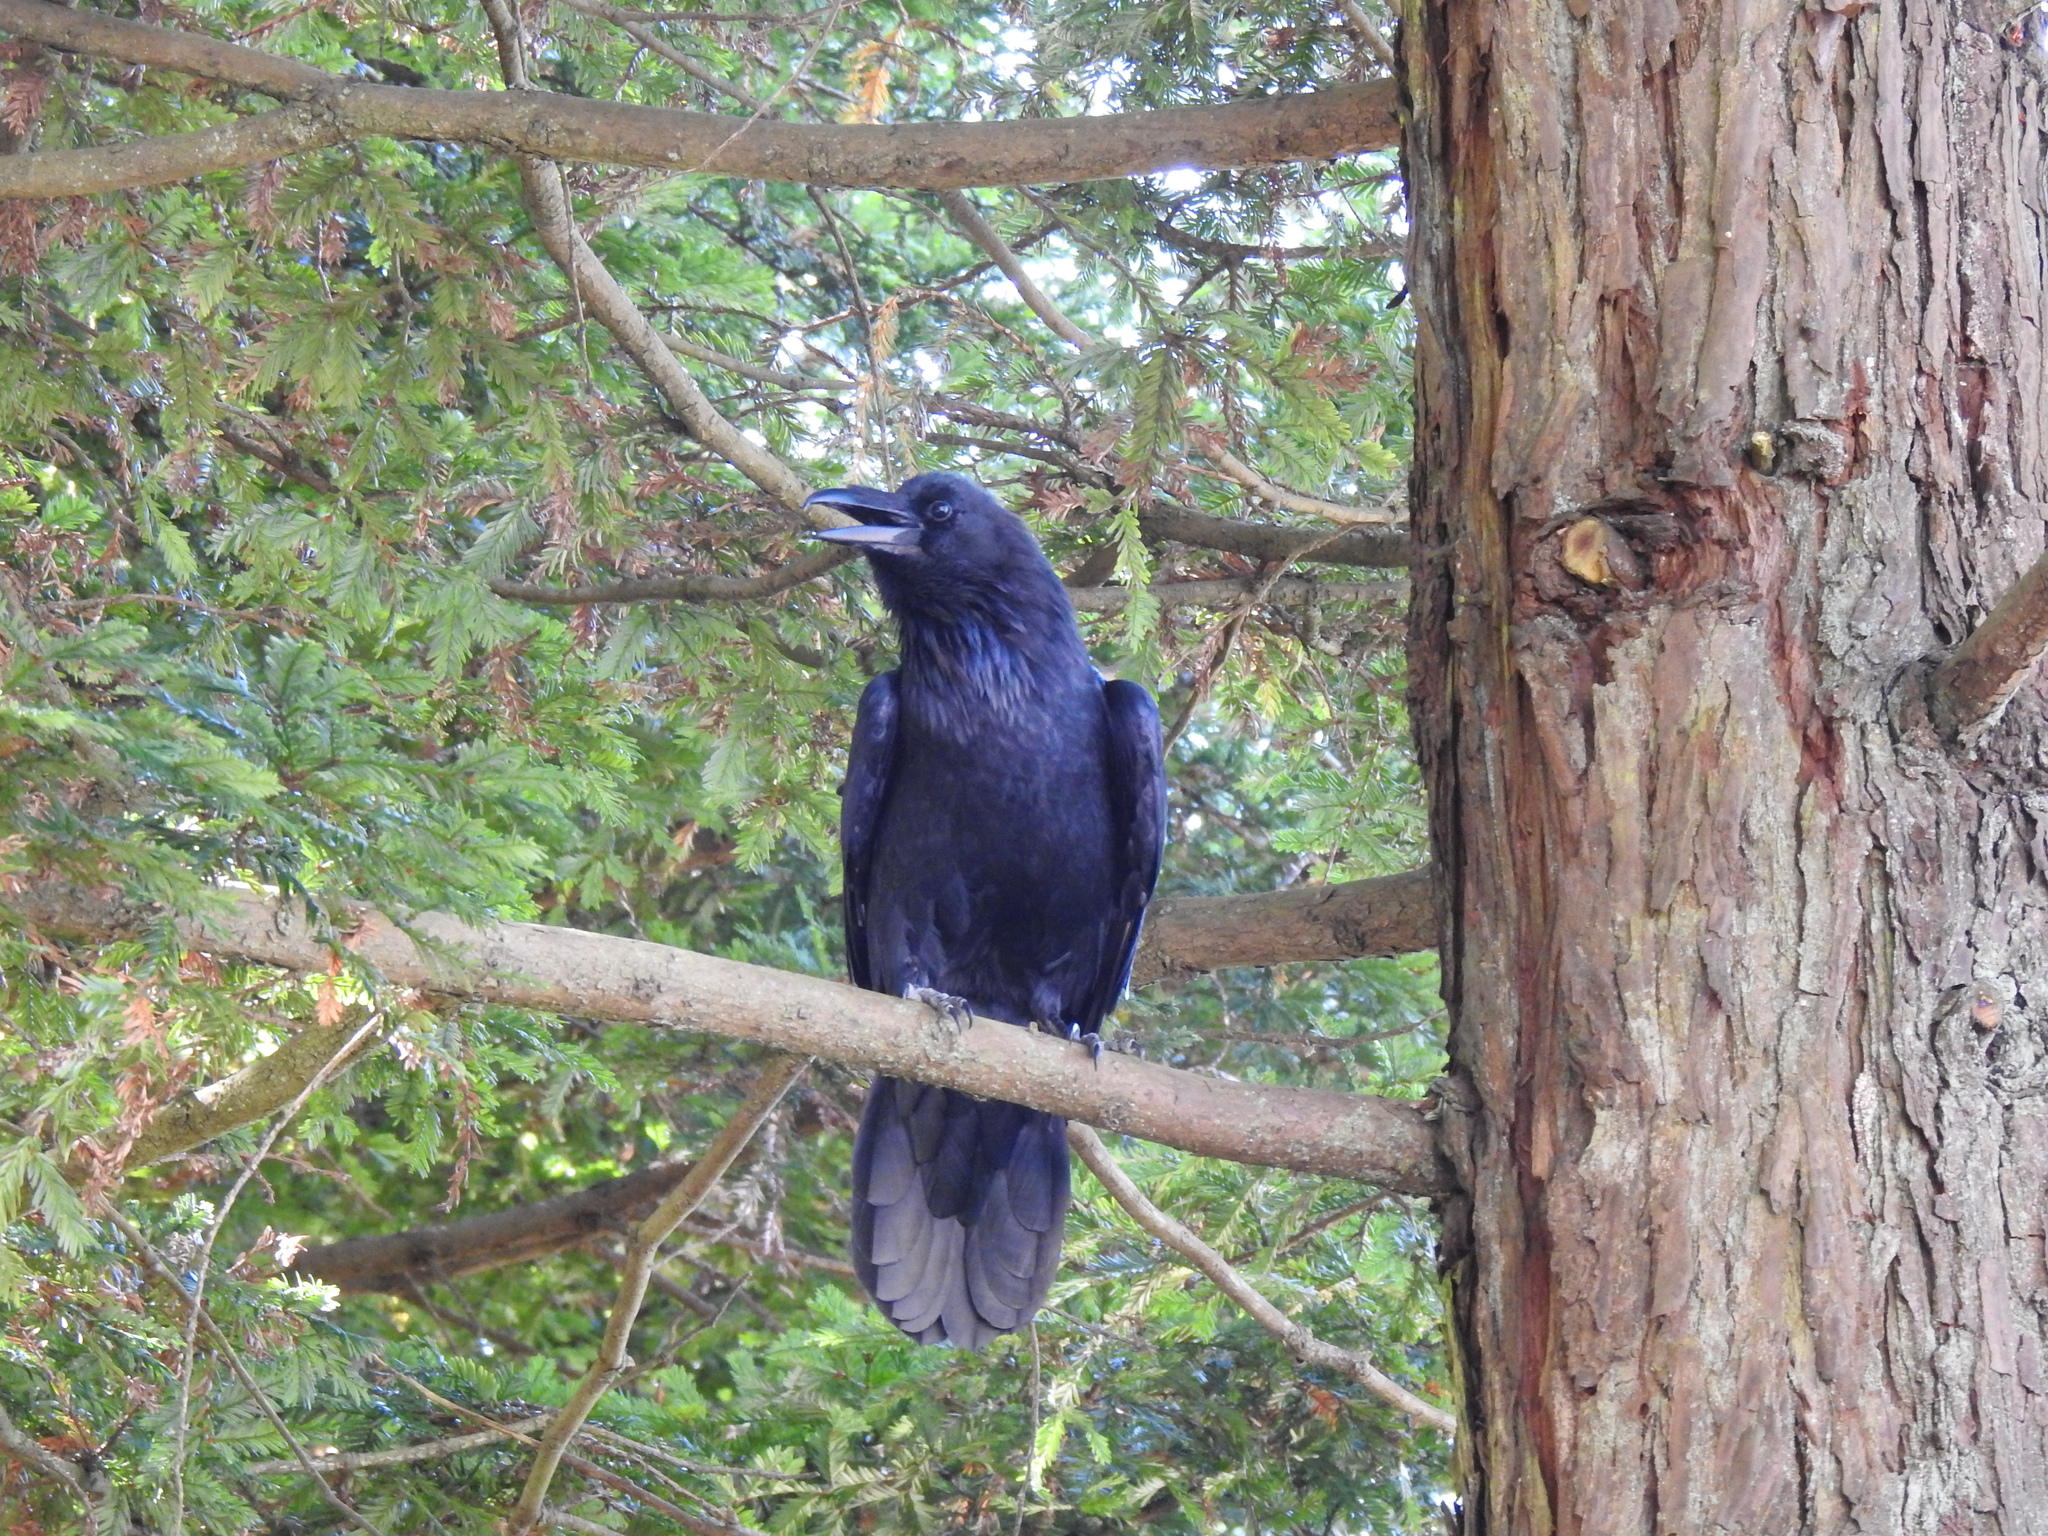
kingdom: Animalia
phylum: Chordata
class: Aves
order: Passeriformes
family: Corvidae
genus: Corvus
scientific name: Corvus corax
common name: Common raven
